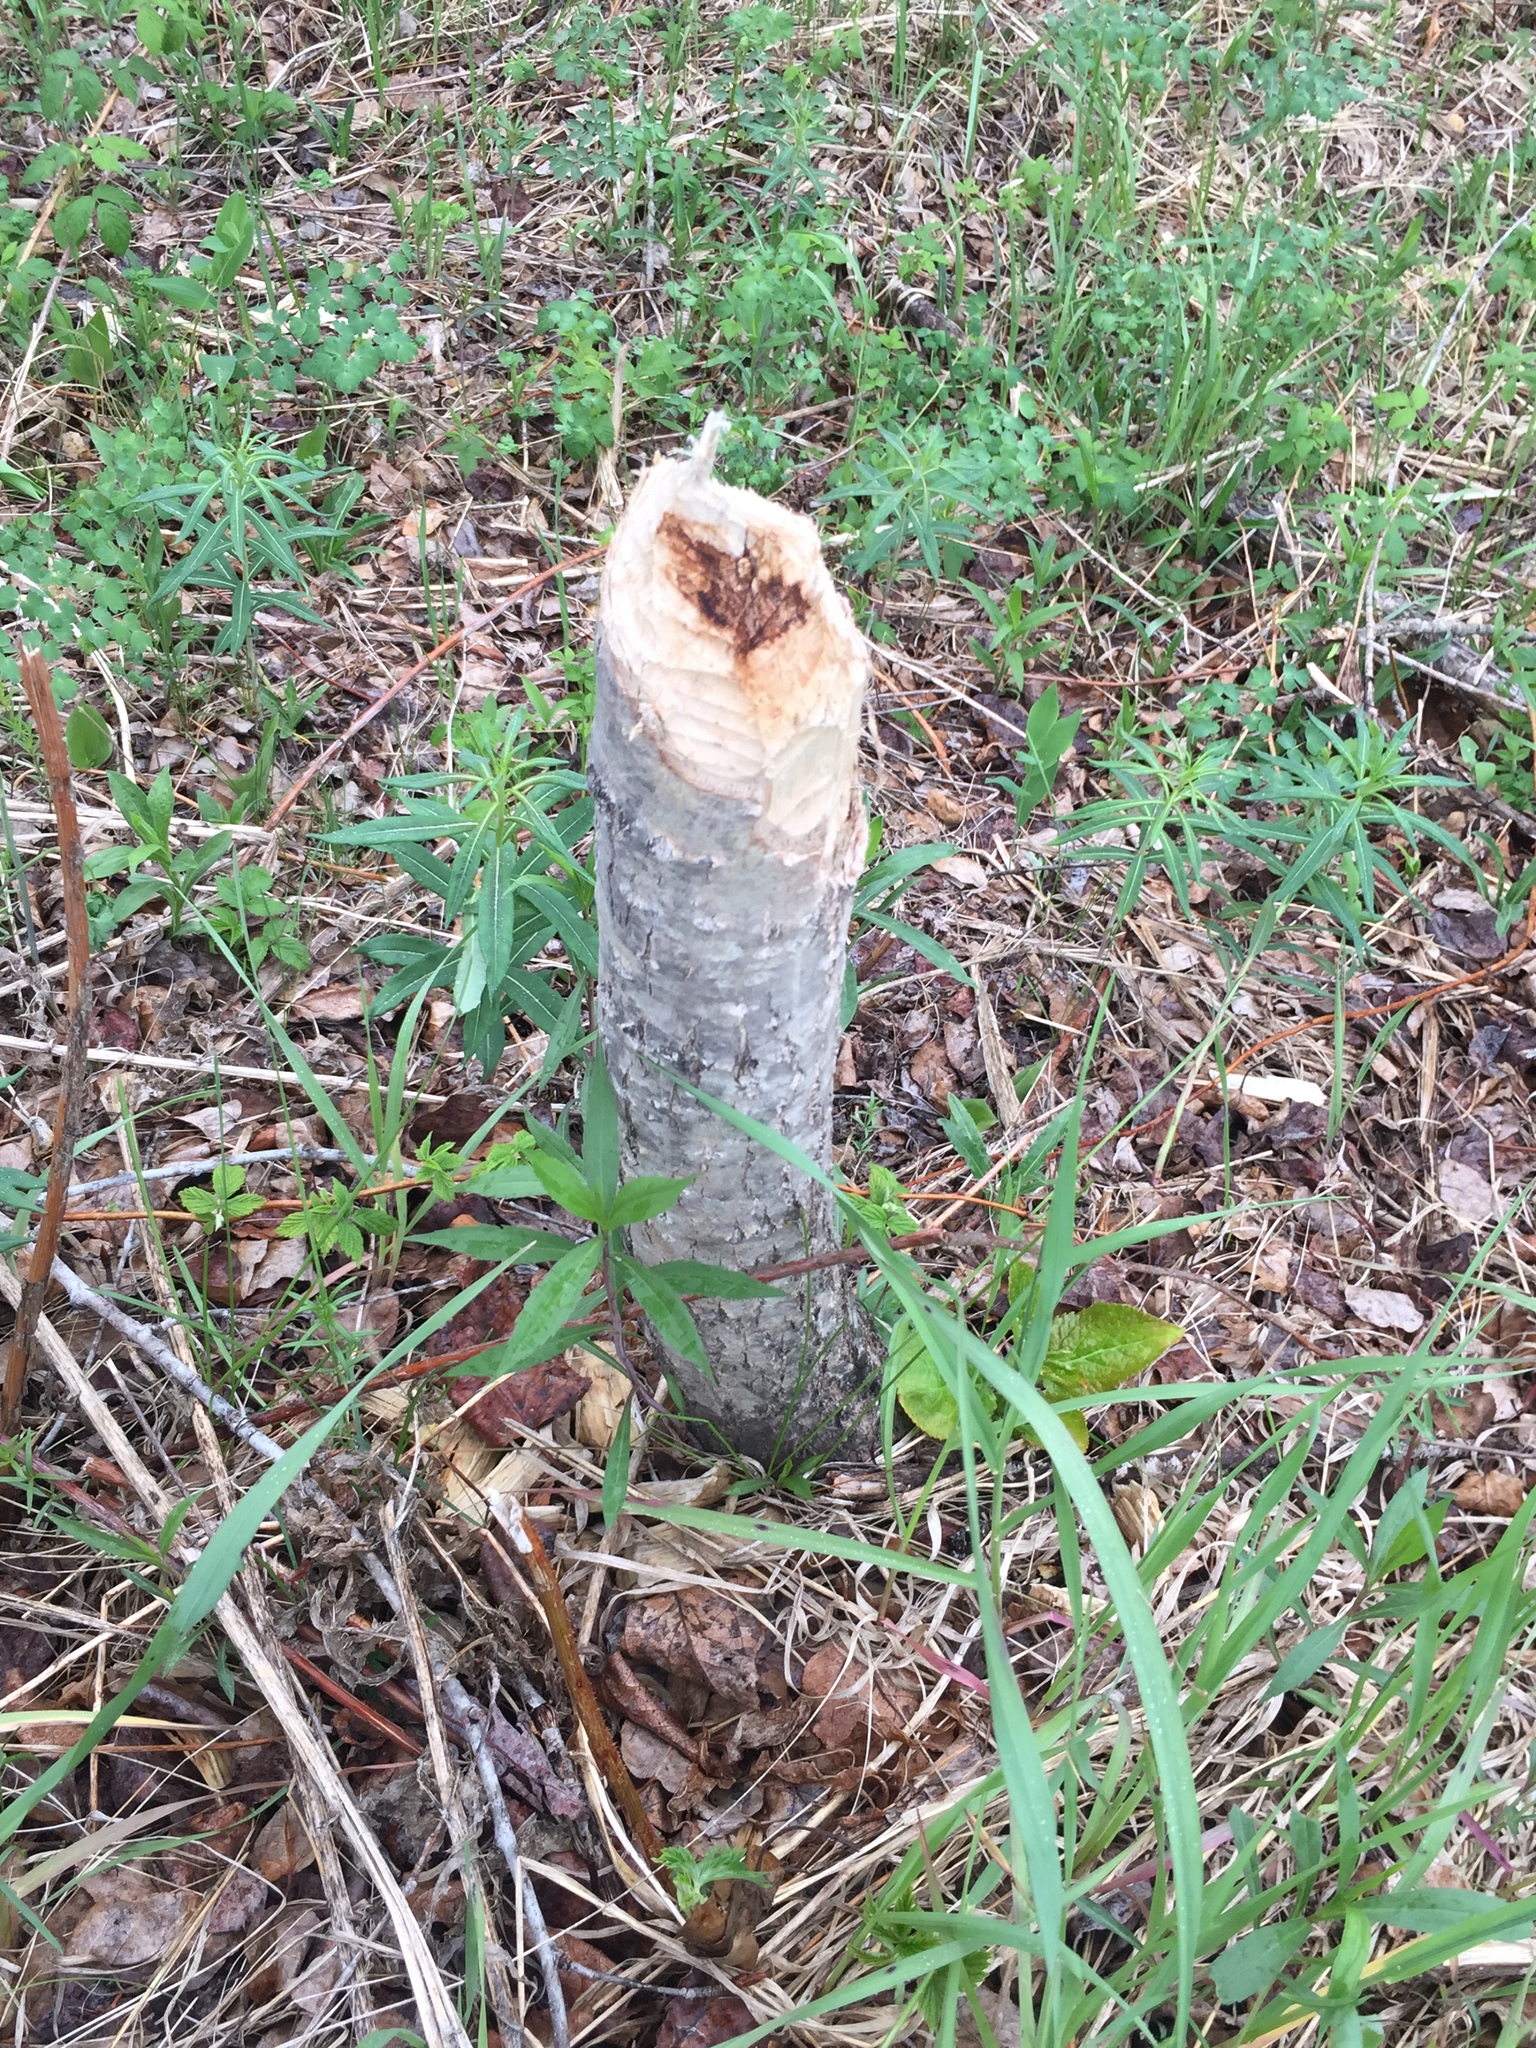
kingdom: Animalia
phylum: Chordata
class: Mammalia
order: Rodentia
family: Castoridae
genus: Castor
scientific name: Castor canadensis
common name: American beaver
